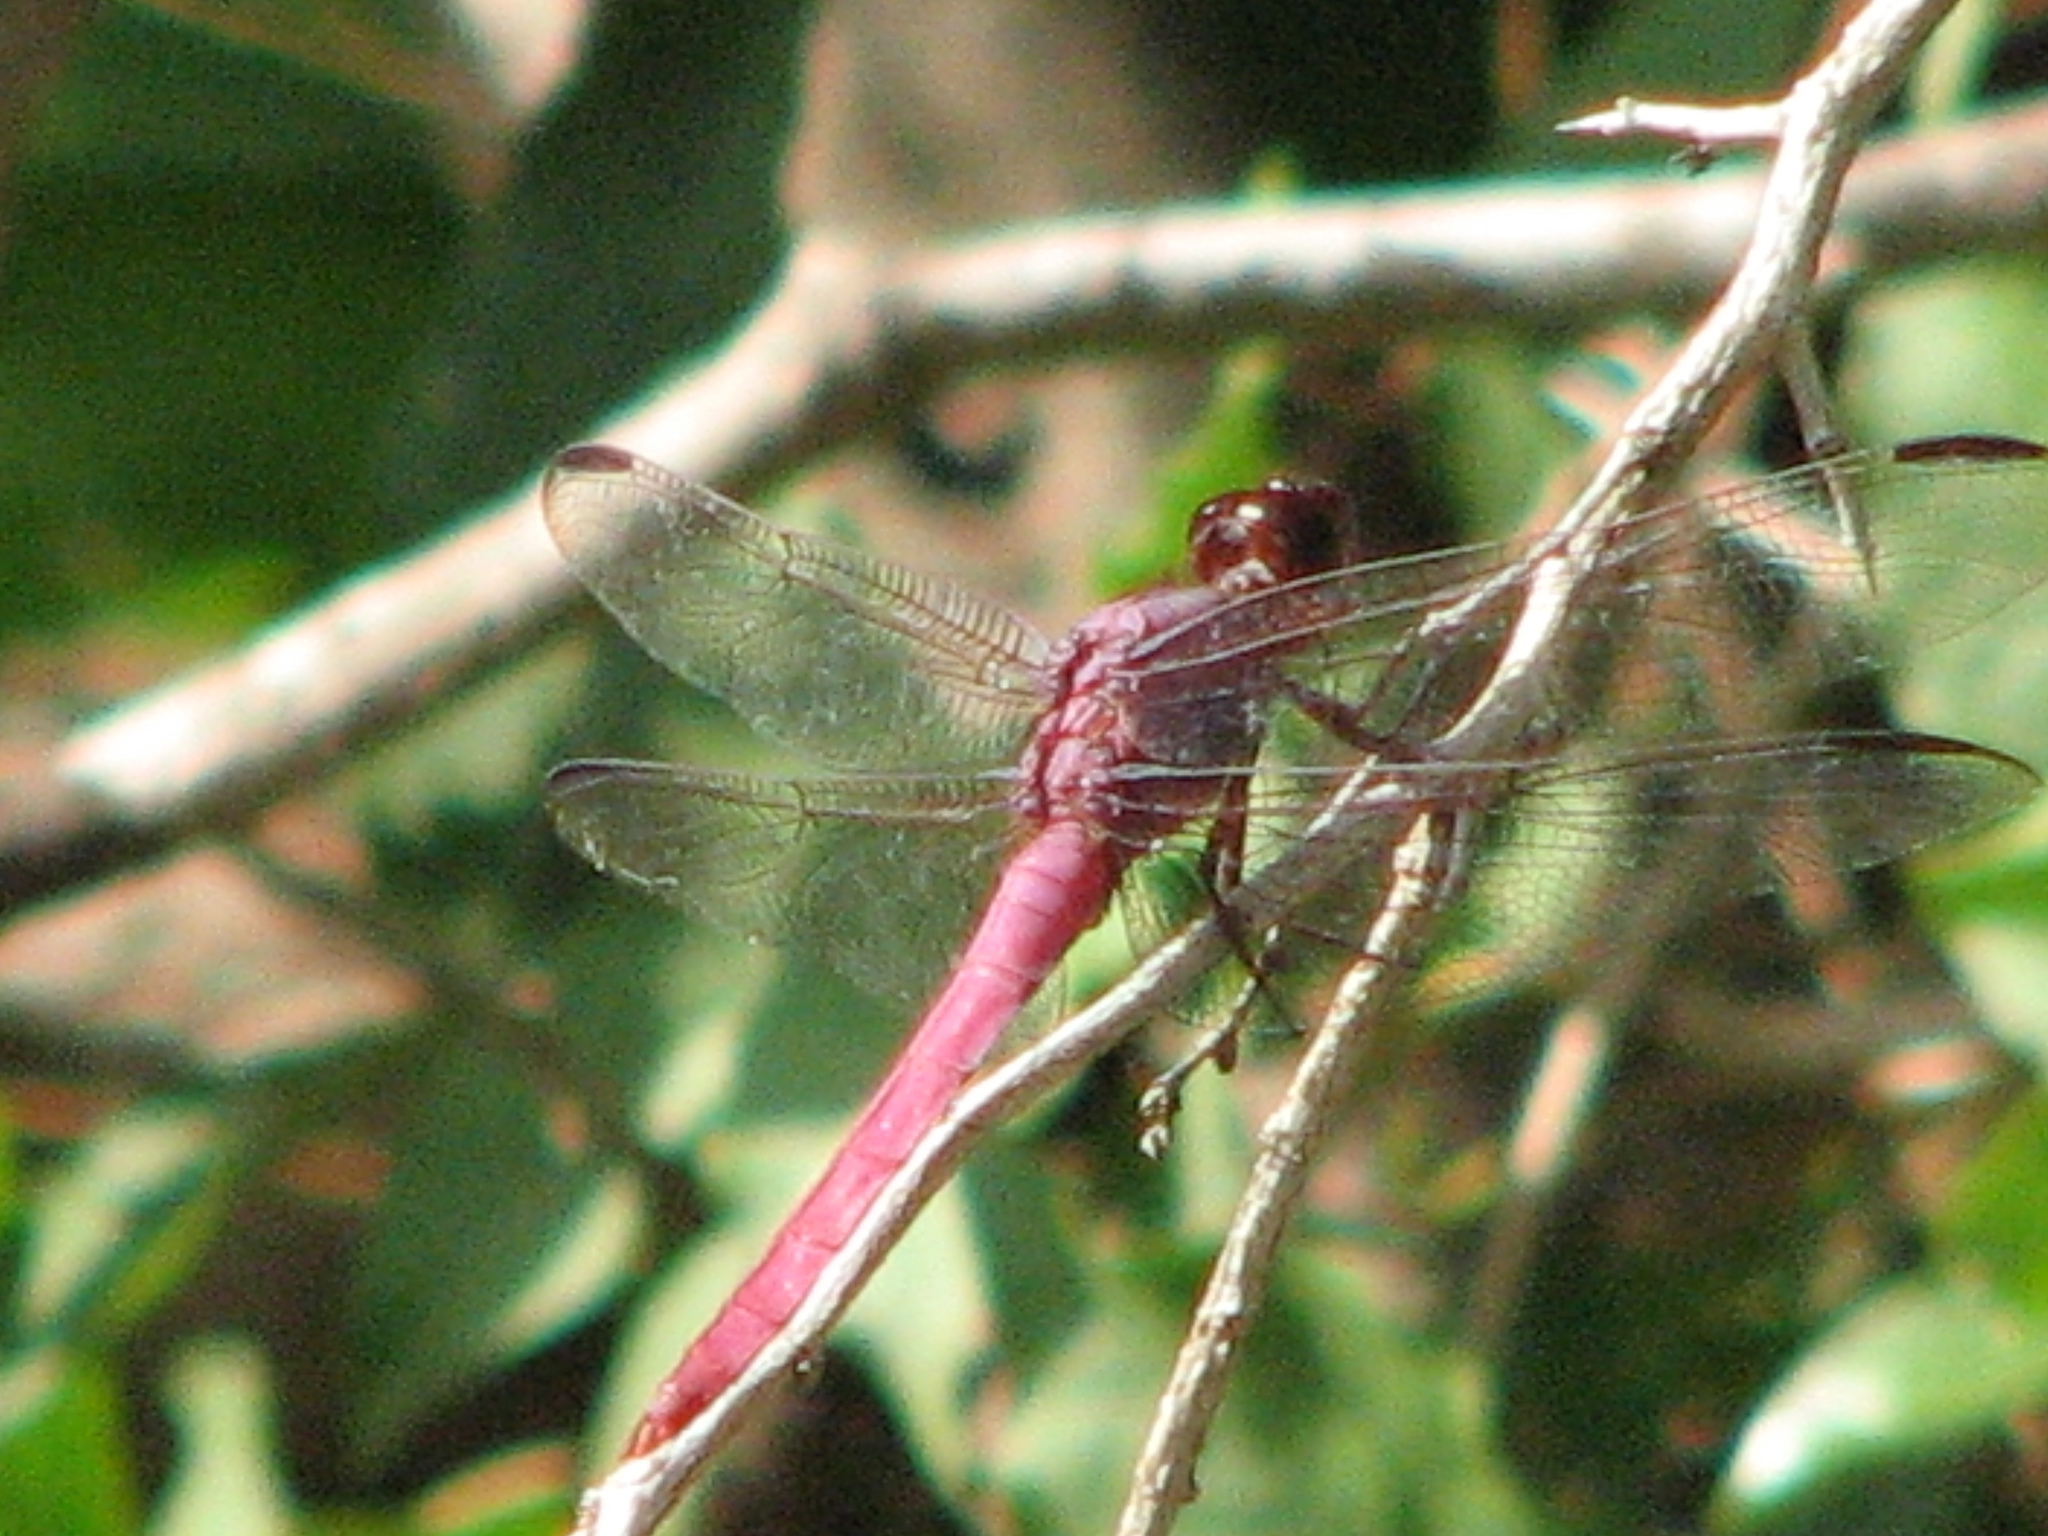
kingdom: Animalia
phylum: Arthropoda
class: Insecta
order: Odonata
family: Libellulidae
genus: Orthemis
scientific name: Orthemis ferruginea
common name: Roseate skimmer
